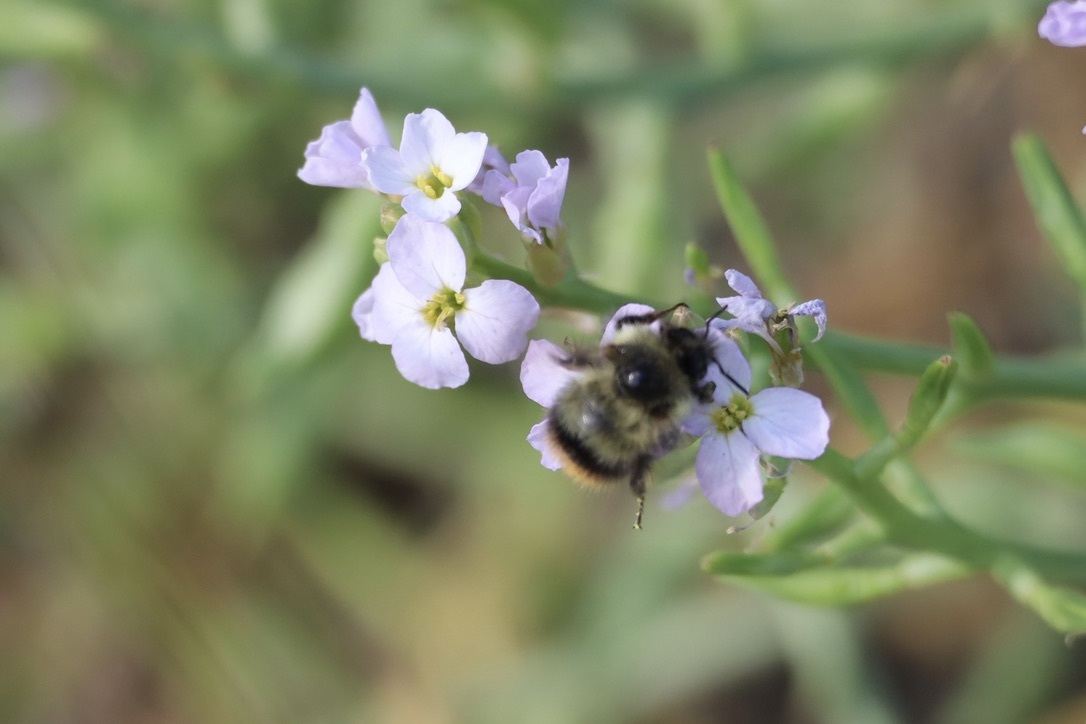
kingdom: Animalia
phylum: Arthropoda
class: Insecta
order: Hymenoptera
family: Apidae
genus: Bombus
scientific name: Bombus mixtus
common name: Fuzzy-horned bumble bee
